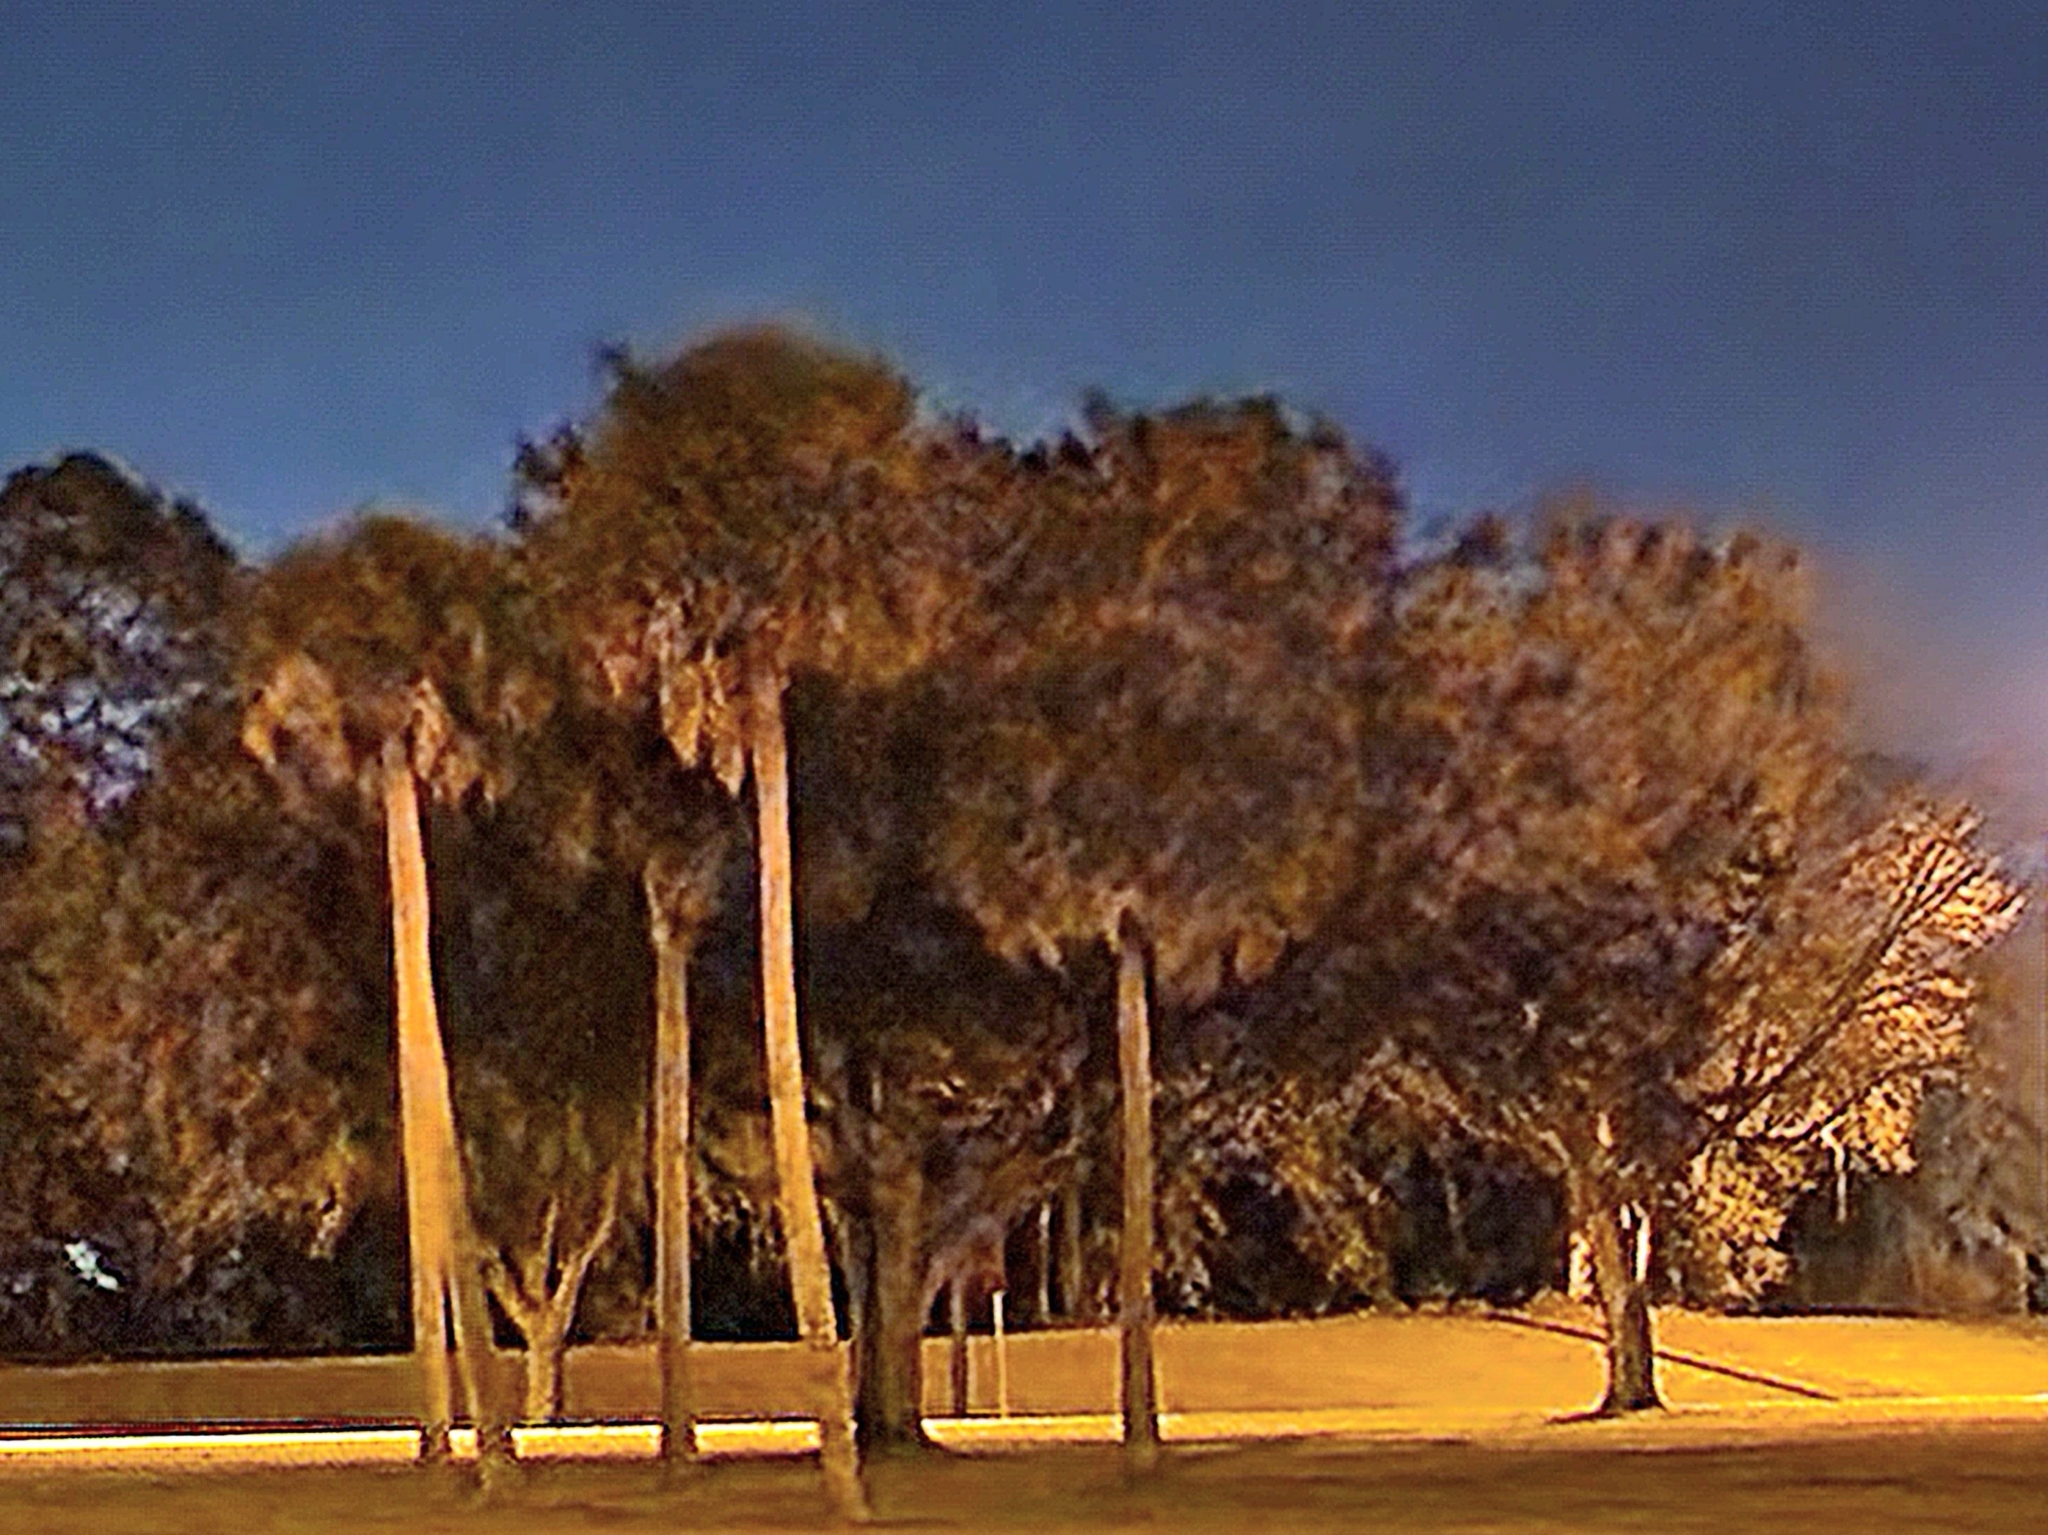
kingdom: Plantae
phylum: Tracheophyta
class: Liliopsida
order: Arecales
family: Arecaceae
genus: Sabal
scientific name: Sabal palmetto
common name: Blue palmetto
